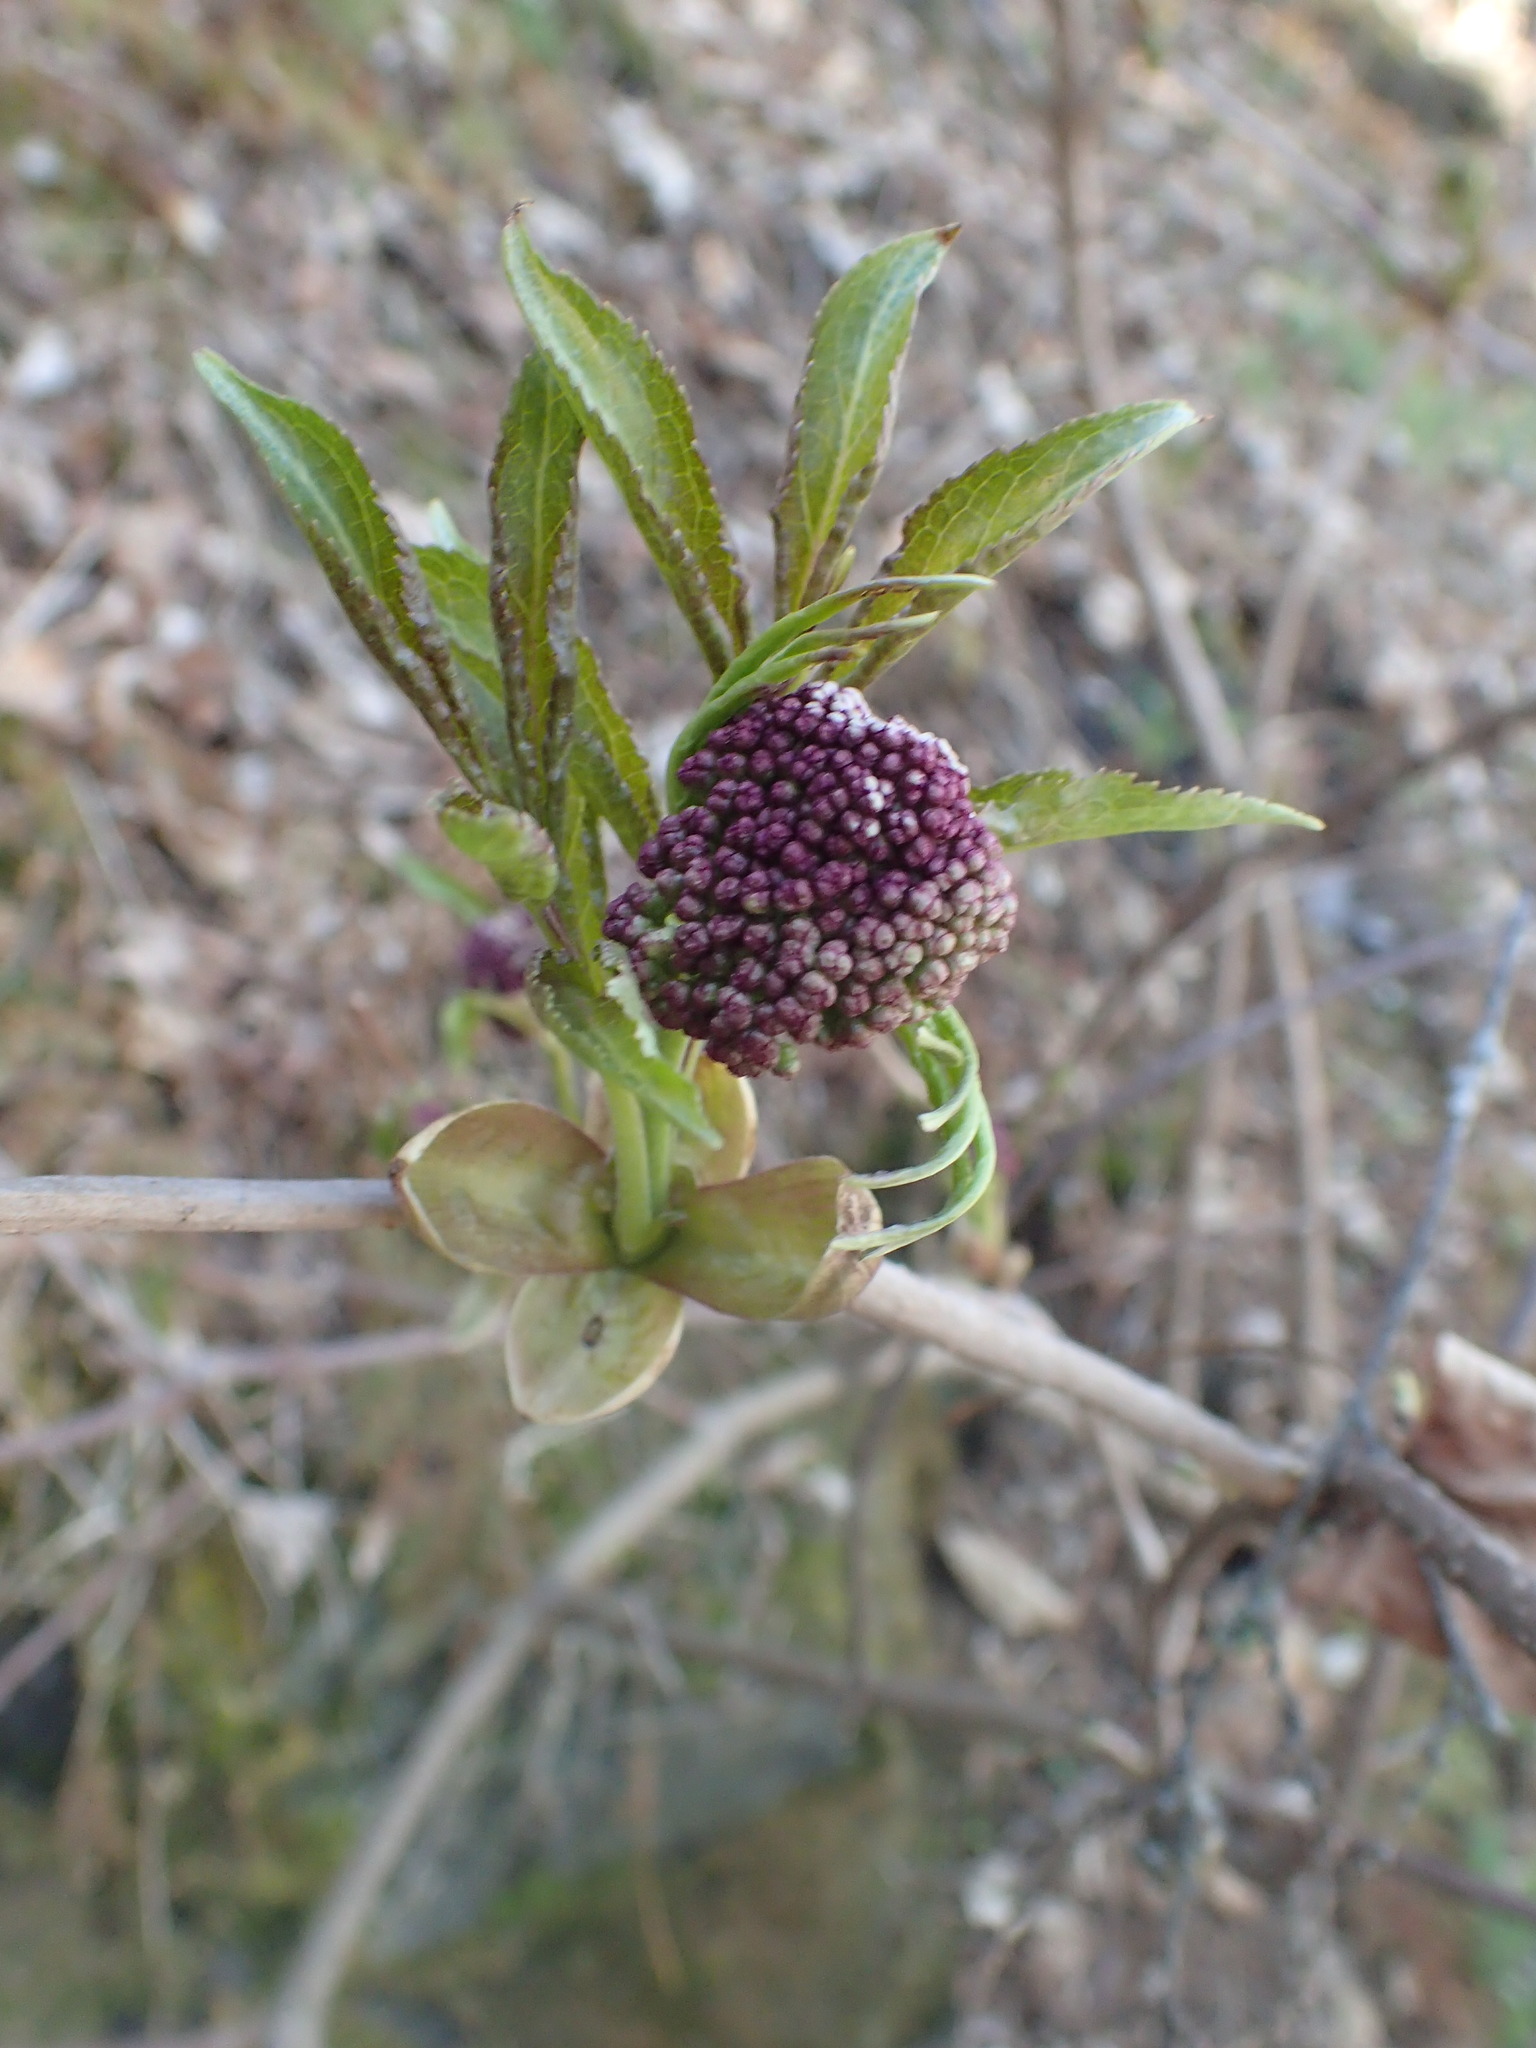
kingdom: Plantae
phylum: Tracheophyta
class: Magnoliopsida
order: Dipsacales
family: Viburnaceae
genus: Sambucus
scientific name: Sambucus racemosa
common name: Red-berried elder
